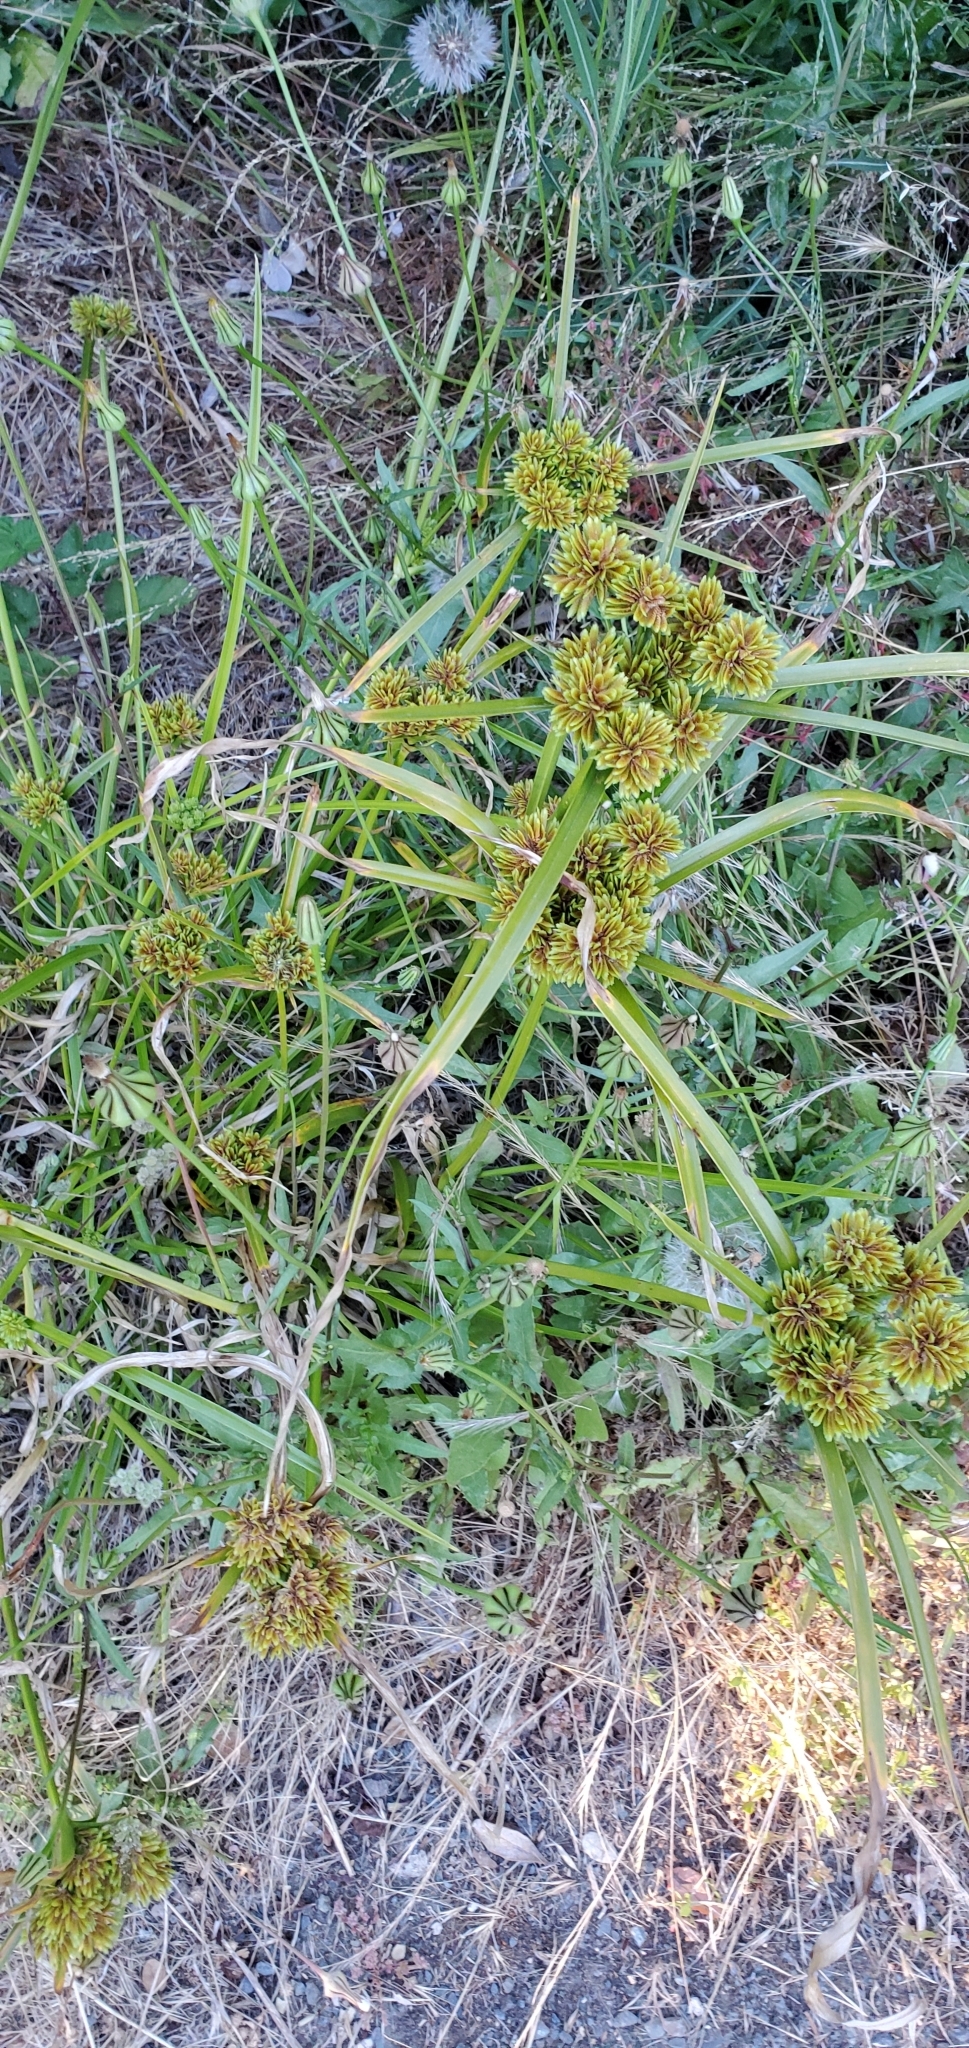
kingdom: Plantae
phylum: Tracheophyta
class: Liliopsida
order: Poales
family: Cyperaceae
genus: Cyperus
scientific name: Cyperus eragrostis
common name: Tall flatsedge
